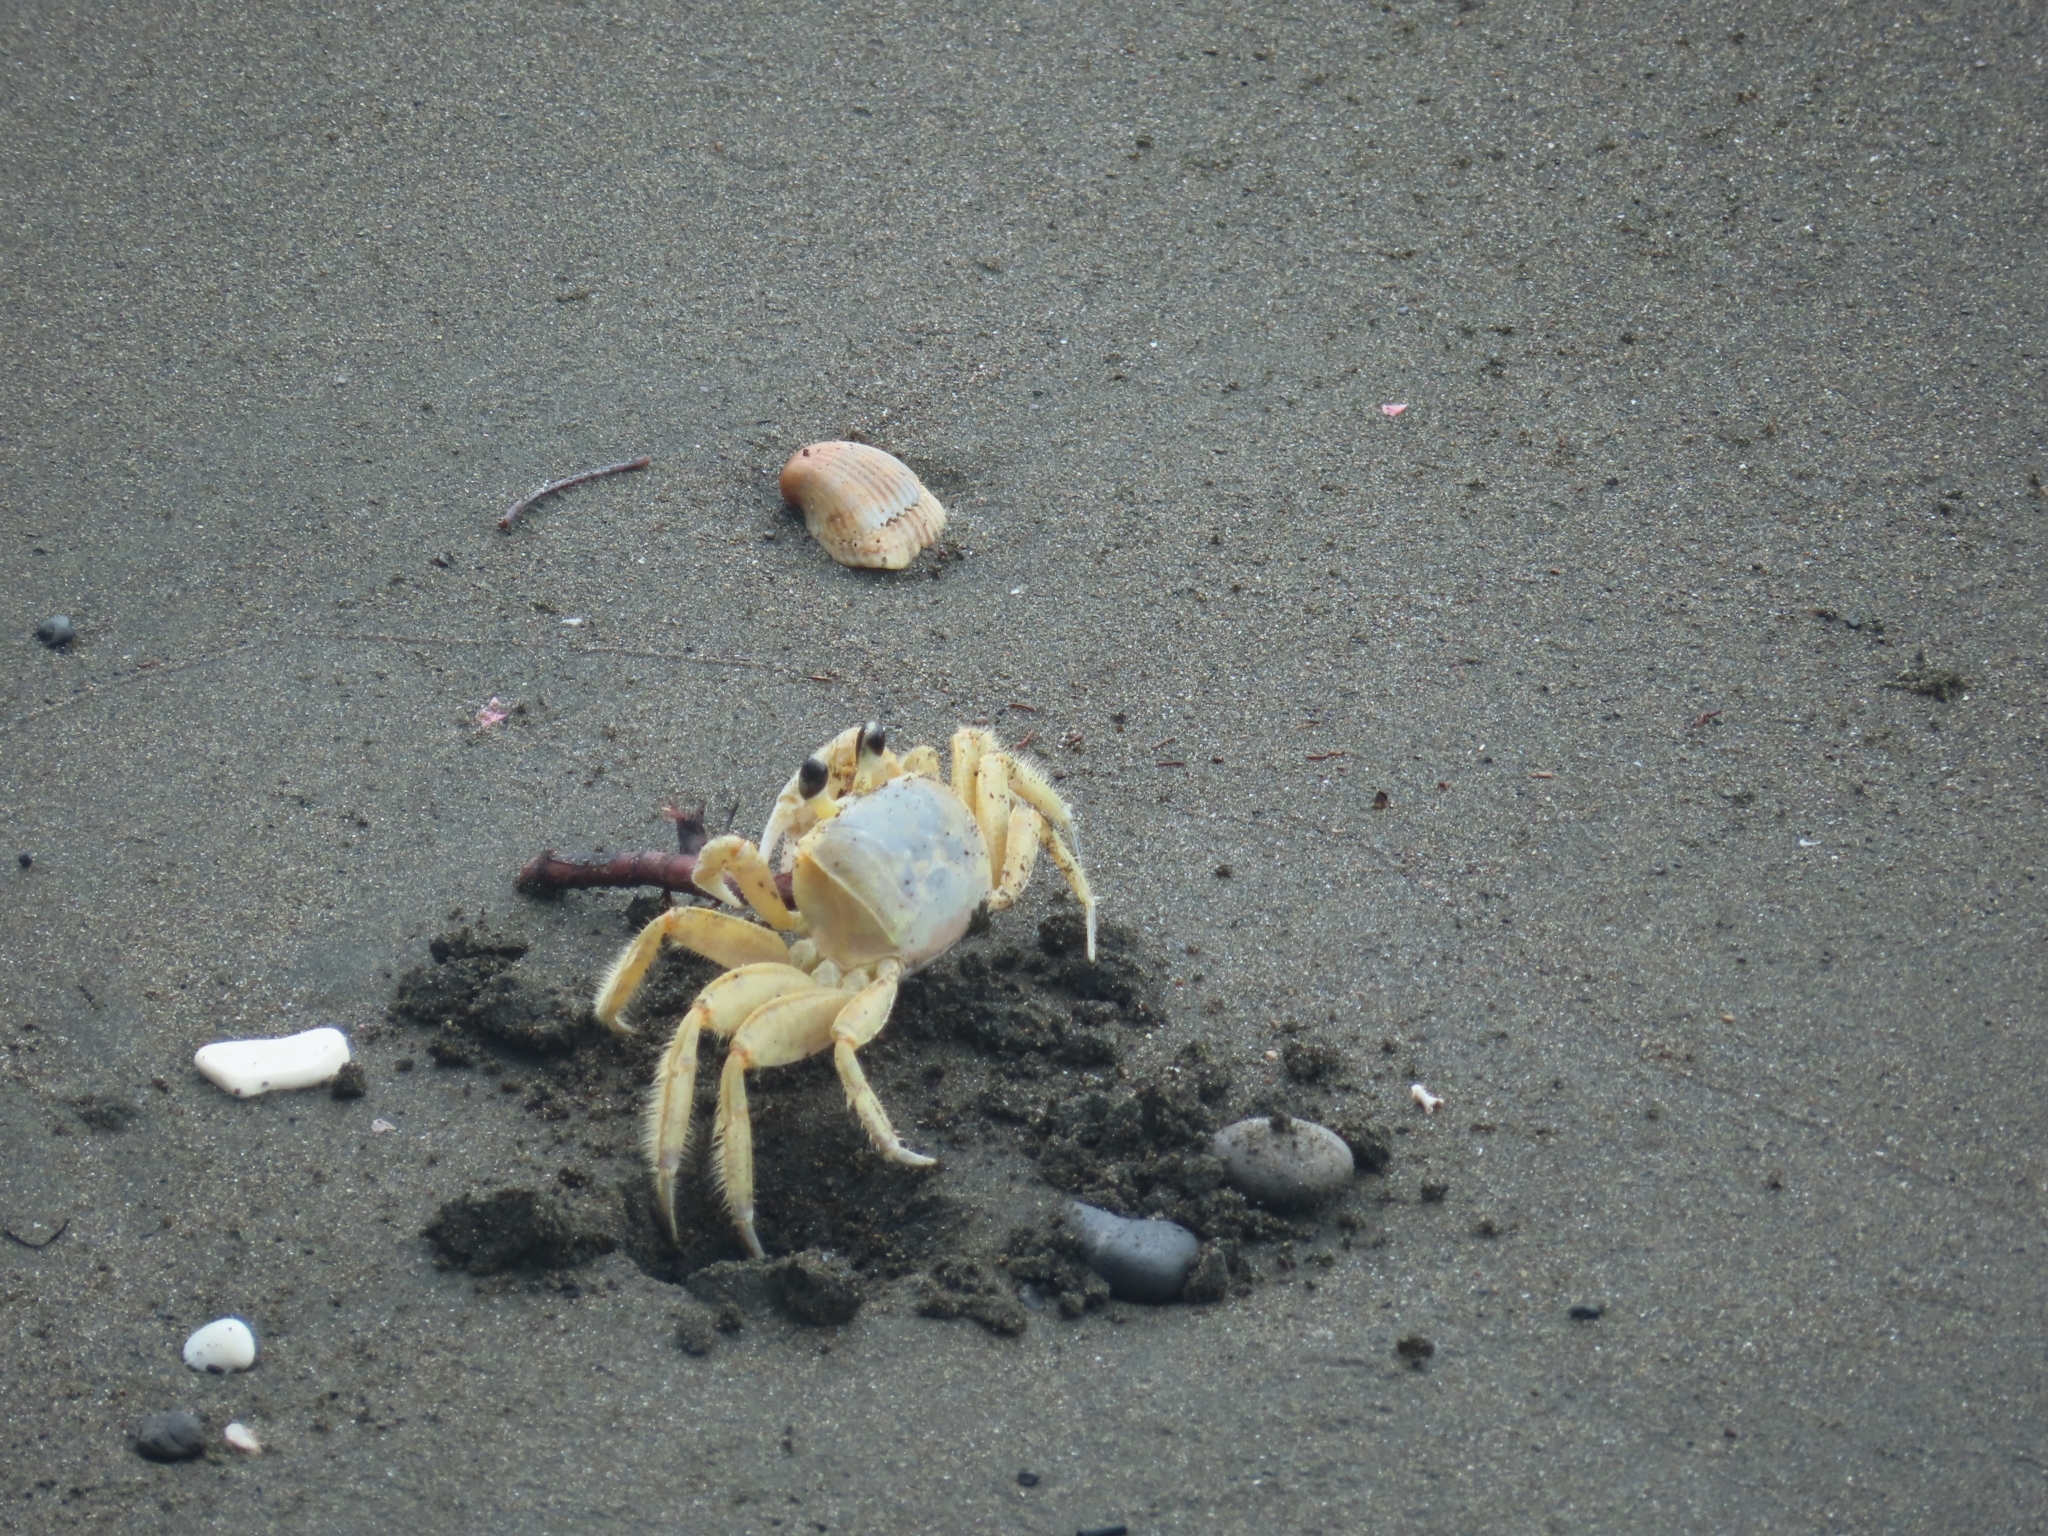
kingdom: Animalia
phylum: Arthropoda
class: Malacostraca
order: Decapoda
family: Ocypodidae
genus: Ocypode
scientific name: Ocypode quadrata
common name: Ghost crab
